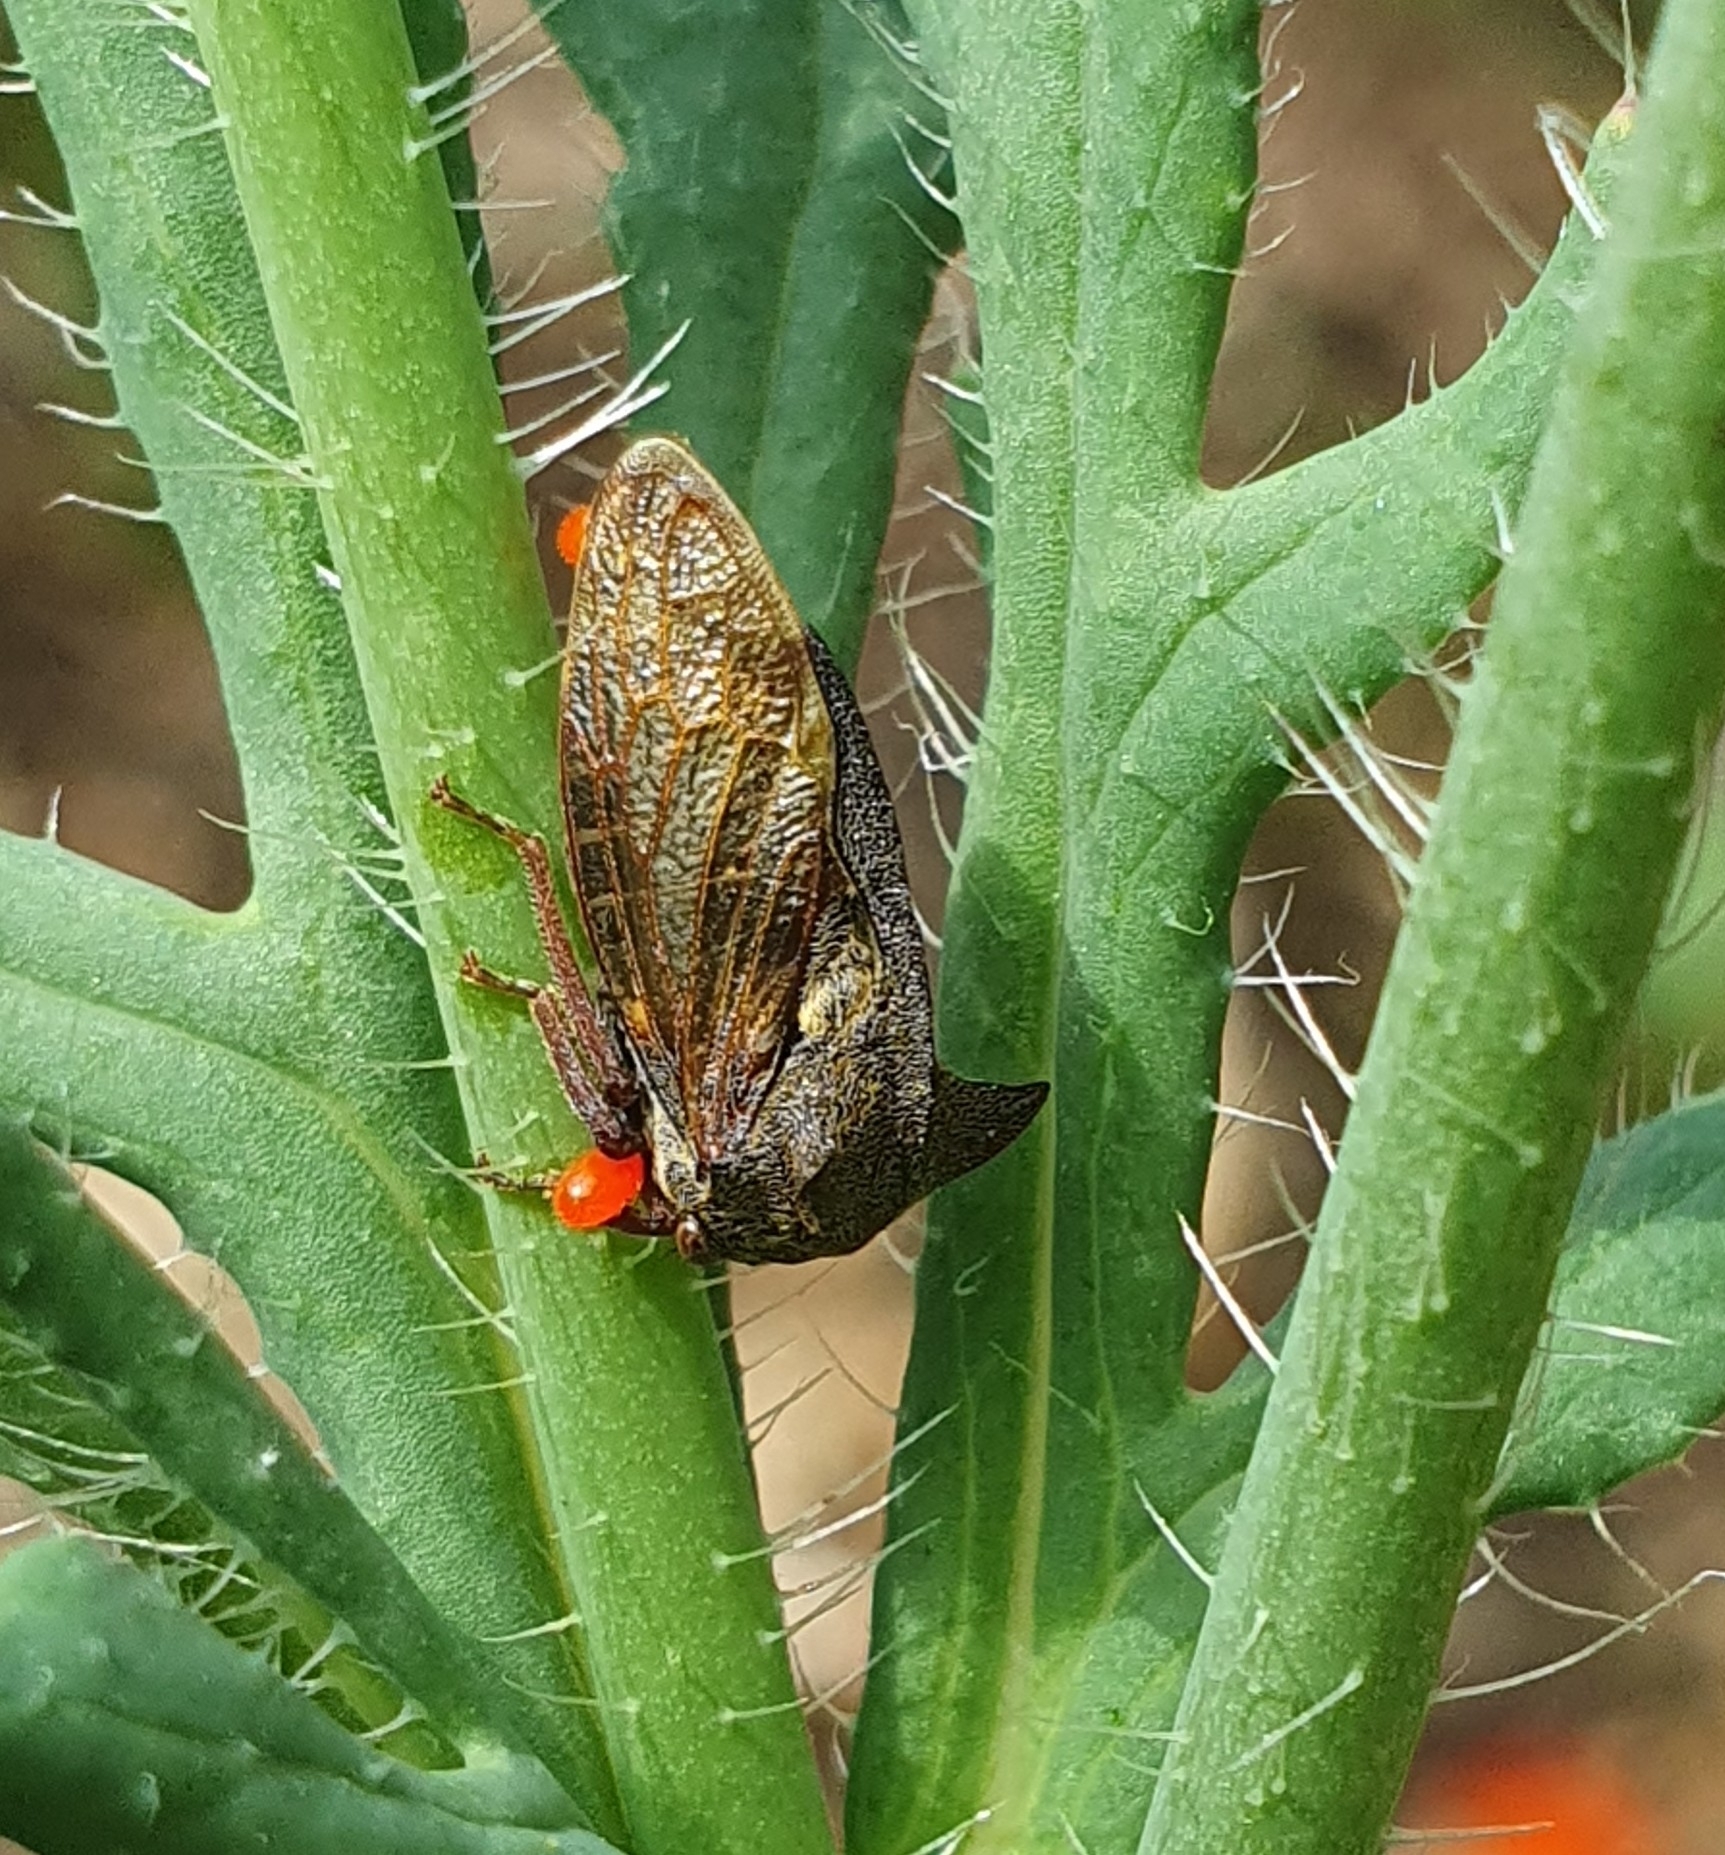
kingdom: Animalia
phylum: Arthropoda
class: Insecta
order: Hemiptera
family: Membracidae
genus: Centrotus
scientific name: Centrotus cornuta
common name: Treehopper
